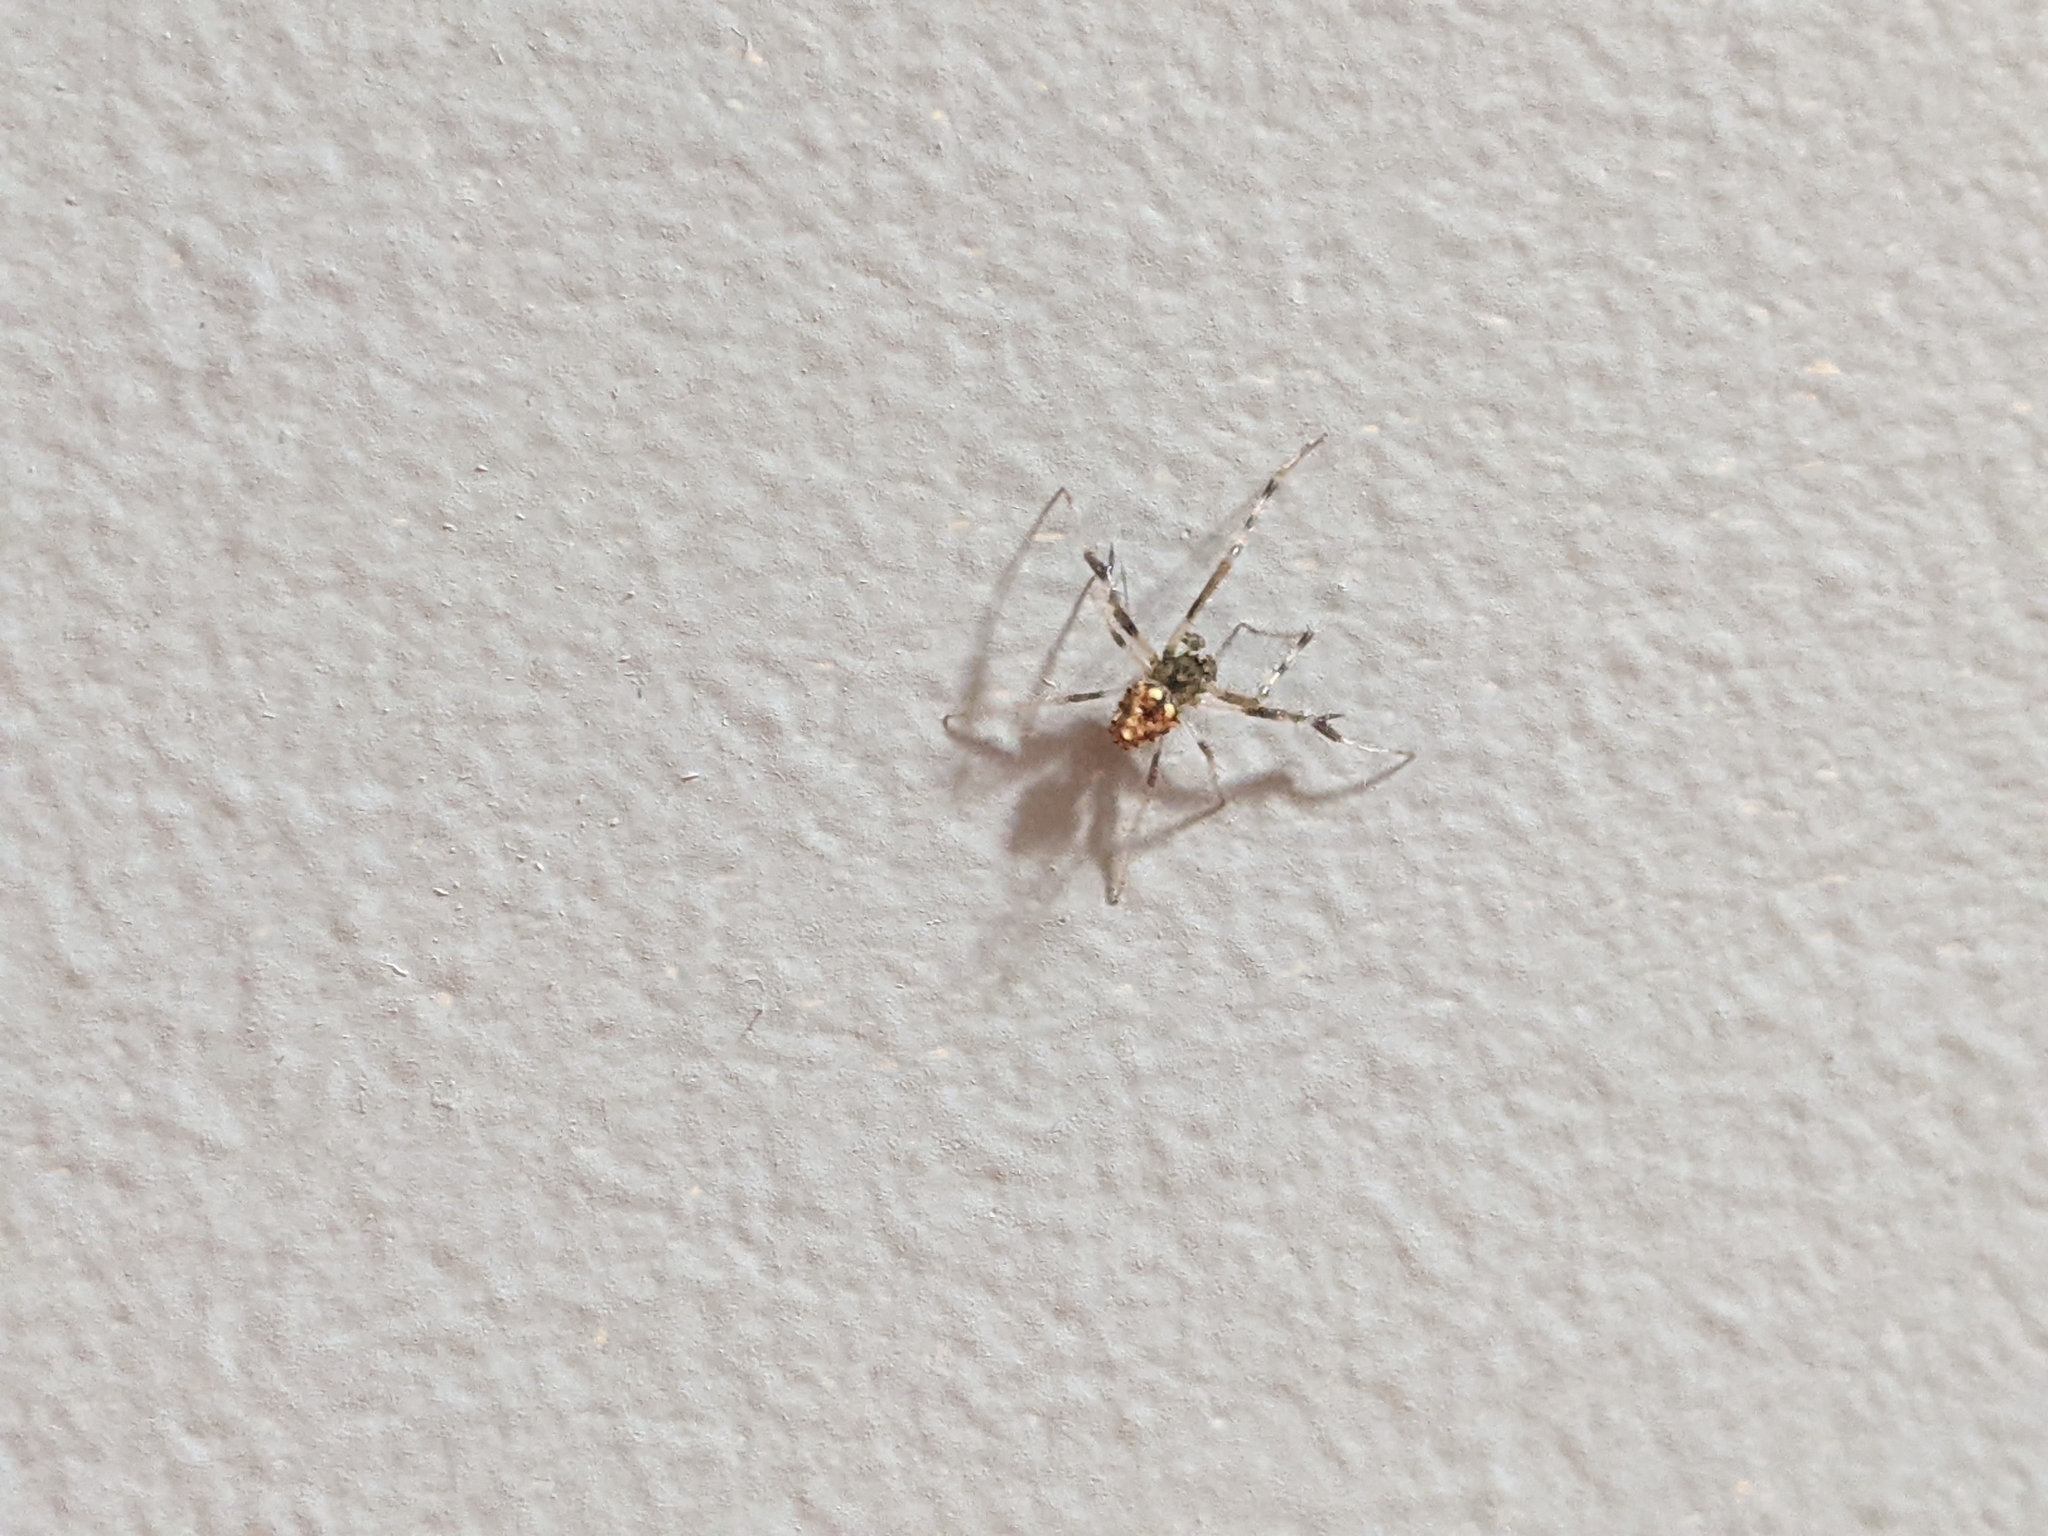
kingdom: Animalia
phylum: Arthropoda
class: Arachnida
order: Araneae
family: Araneidae
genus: Verrucosa
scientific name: Verrucosa arenata
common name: Orb weavers
